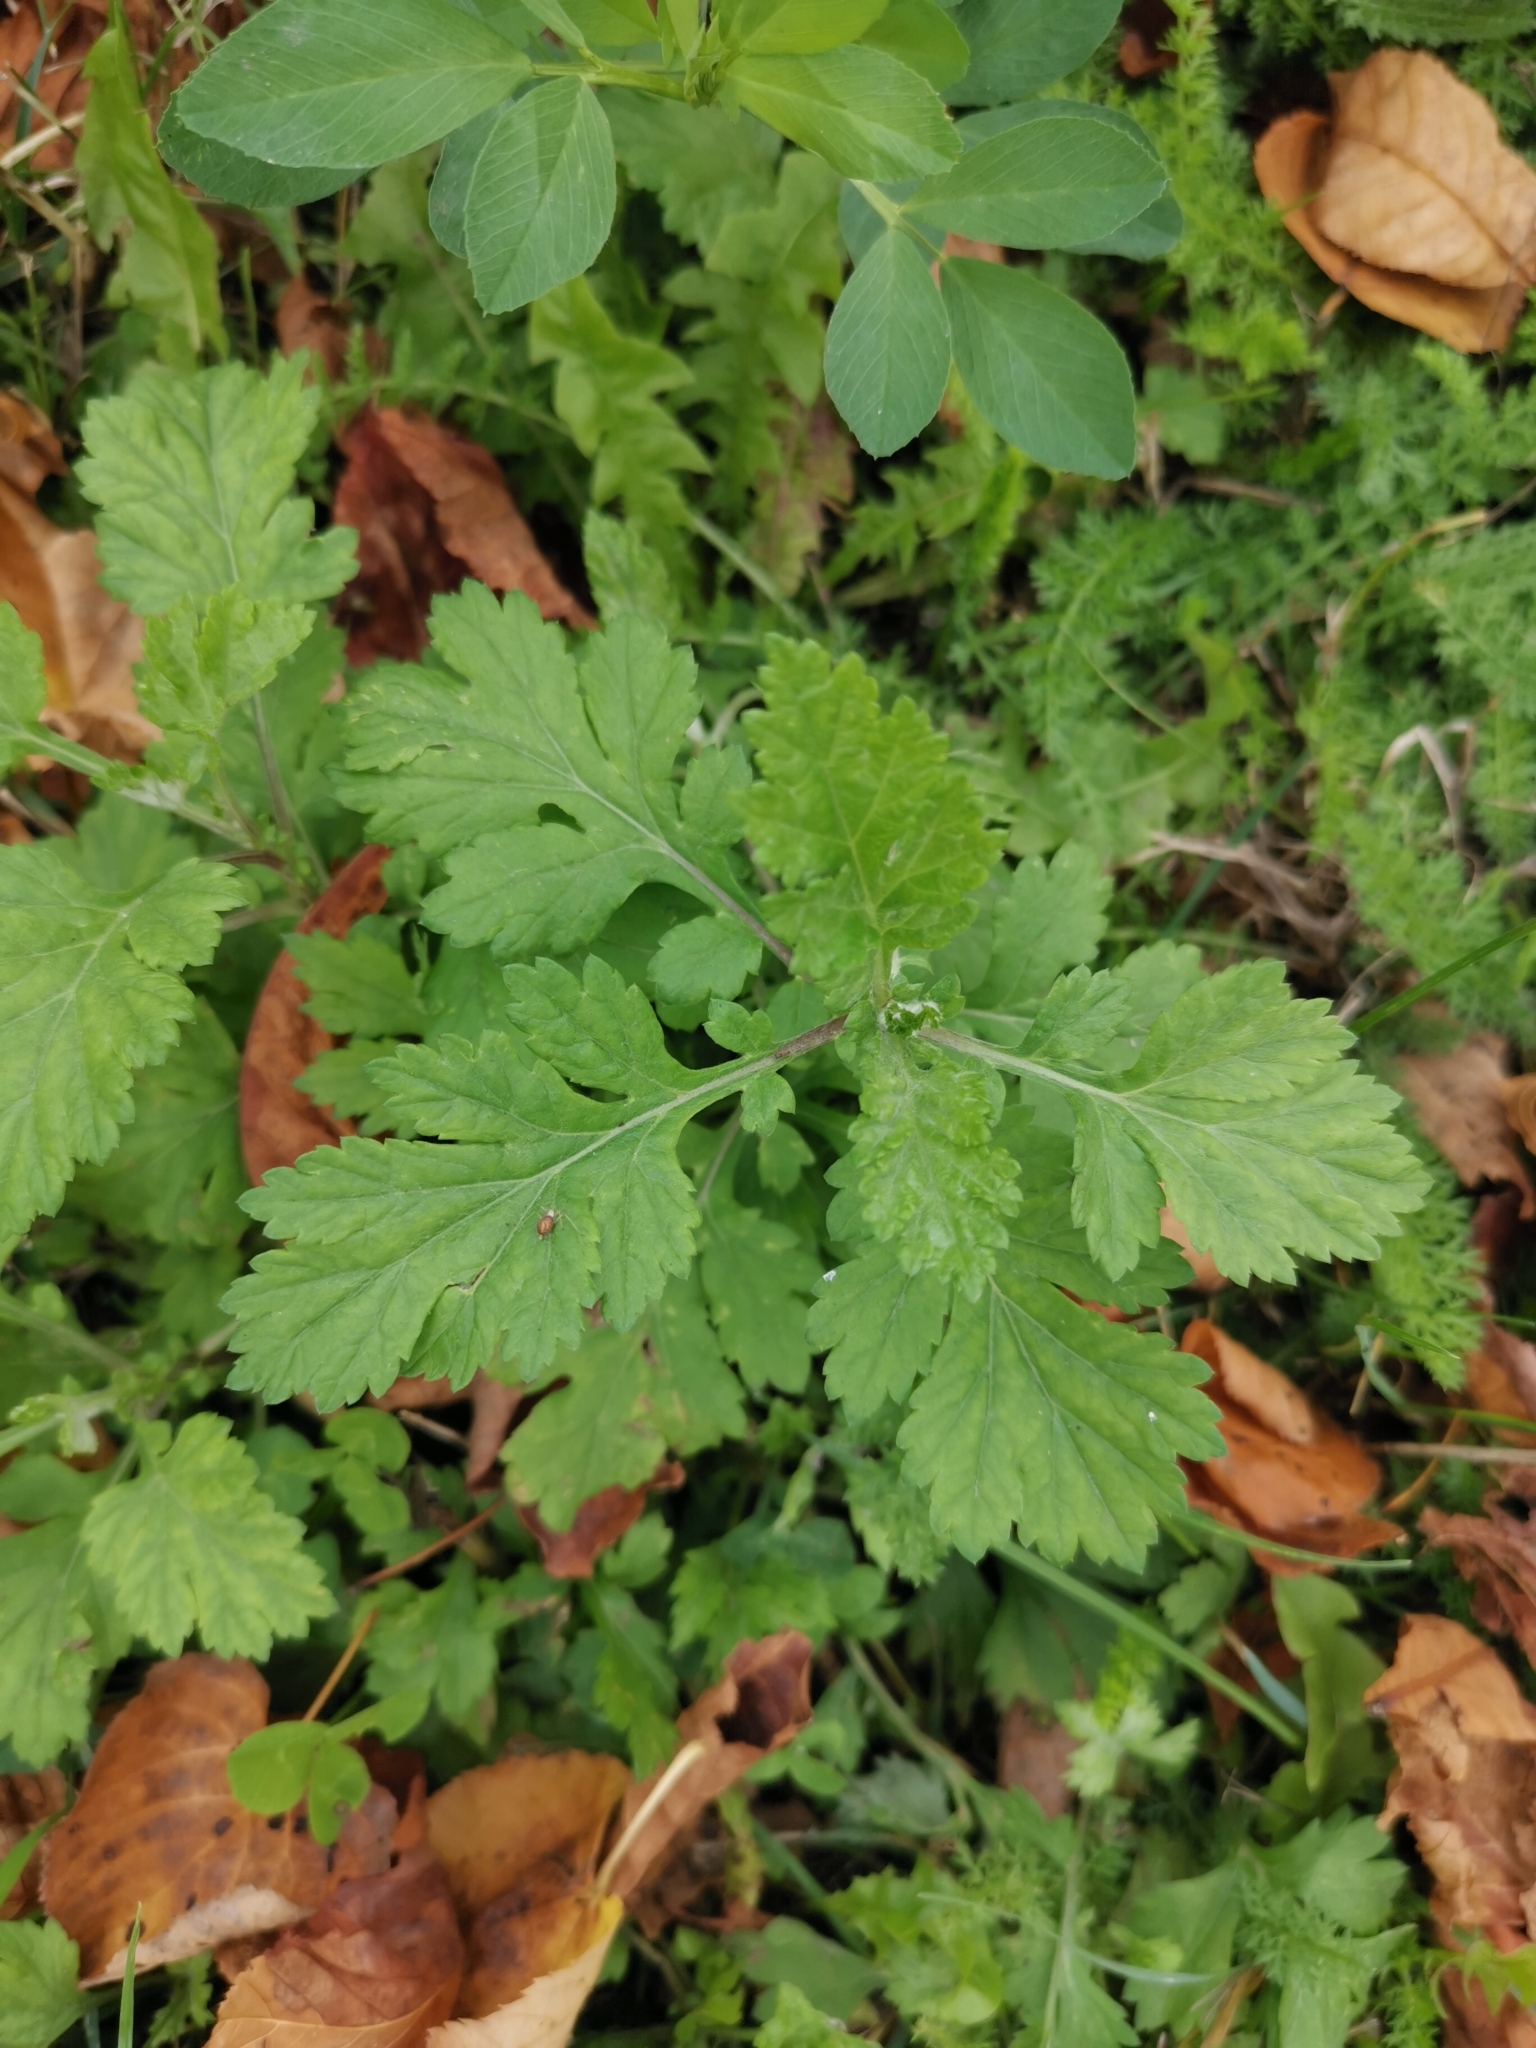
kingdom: Plantae
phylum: Tracheophyta
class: Magnoliopsida
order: Asterales
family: Asteraceae
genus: Artemisia
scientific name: Artemisia vulgaris
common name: Mugwort
